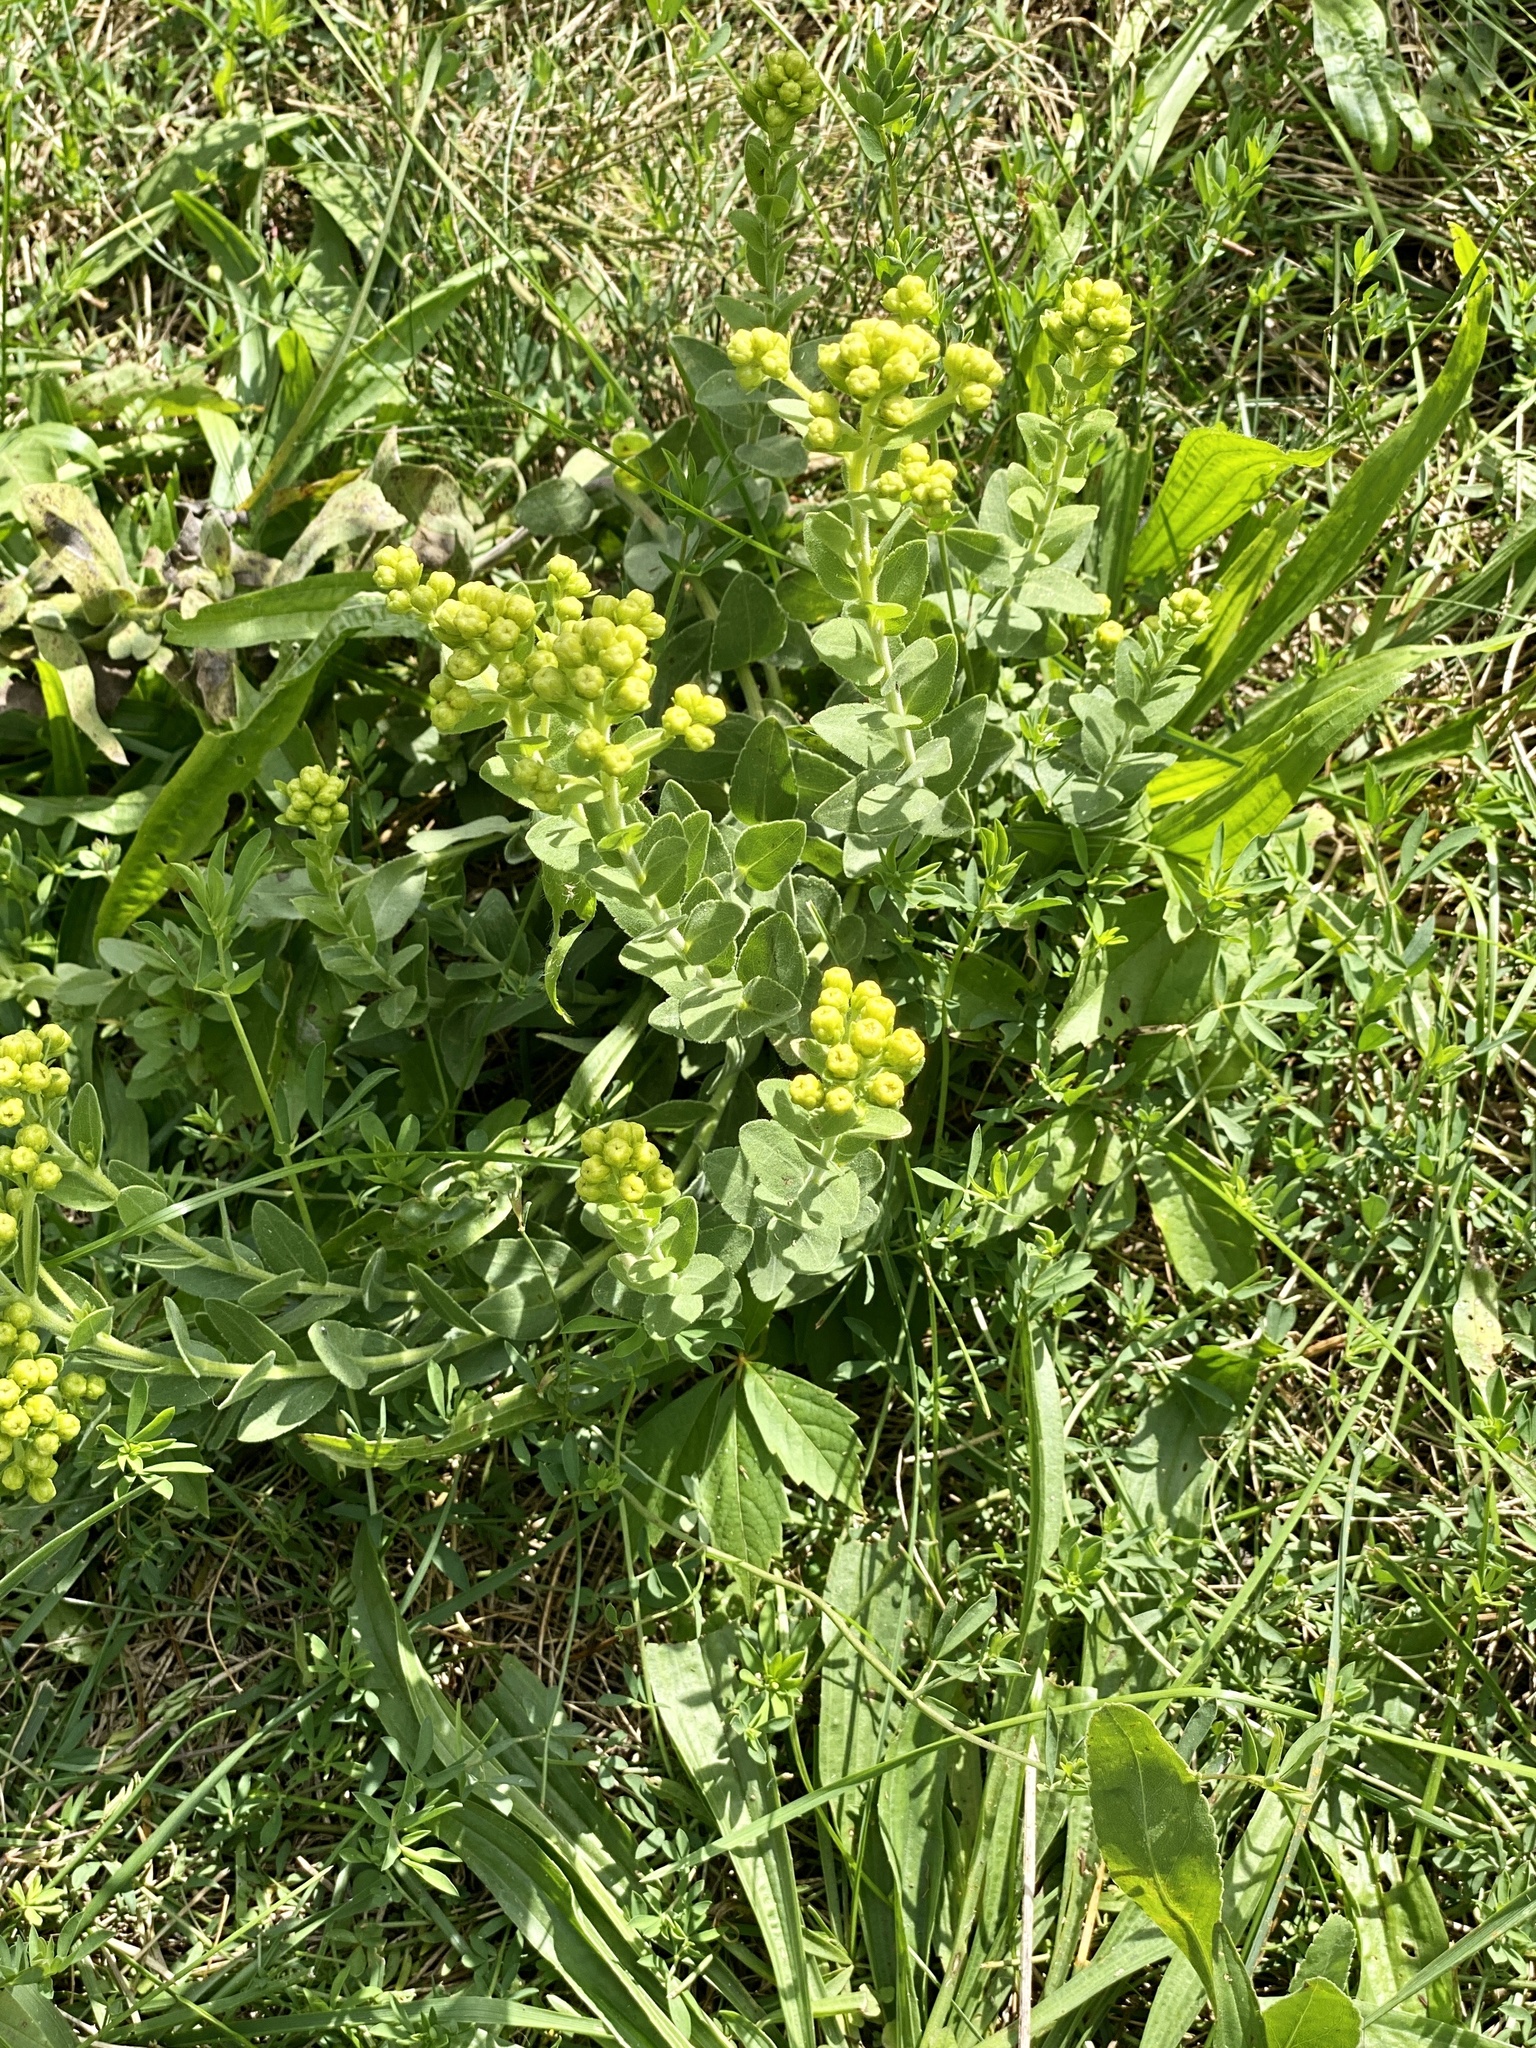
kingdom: Plantae
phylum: Tracheophyta
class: Magnoliopsida
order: Asterales
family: Asteraceae
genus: Solidago
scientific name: Solidago rigida
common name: Rigid goldenrod
